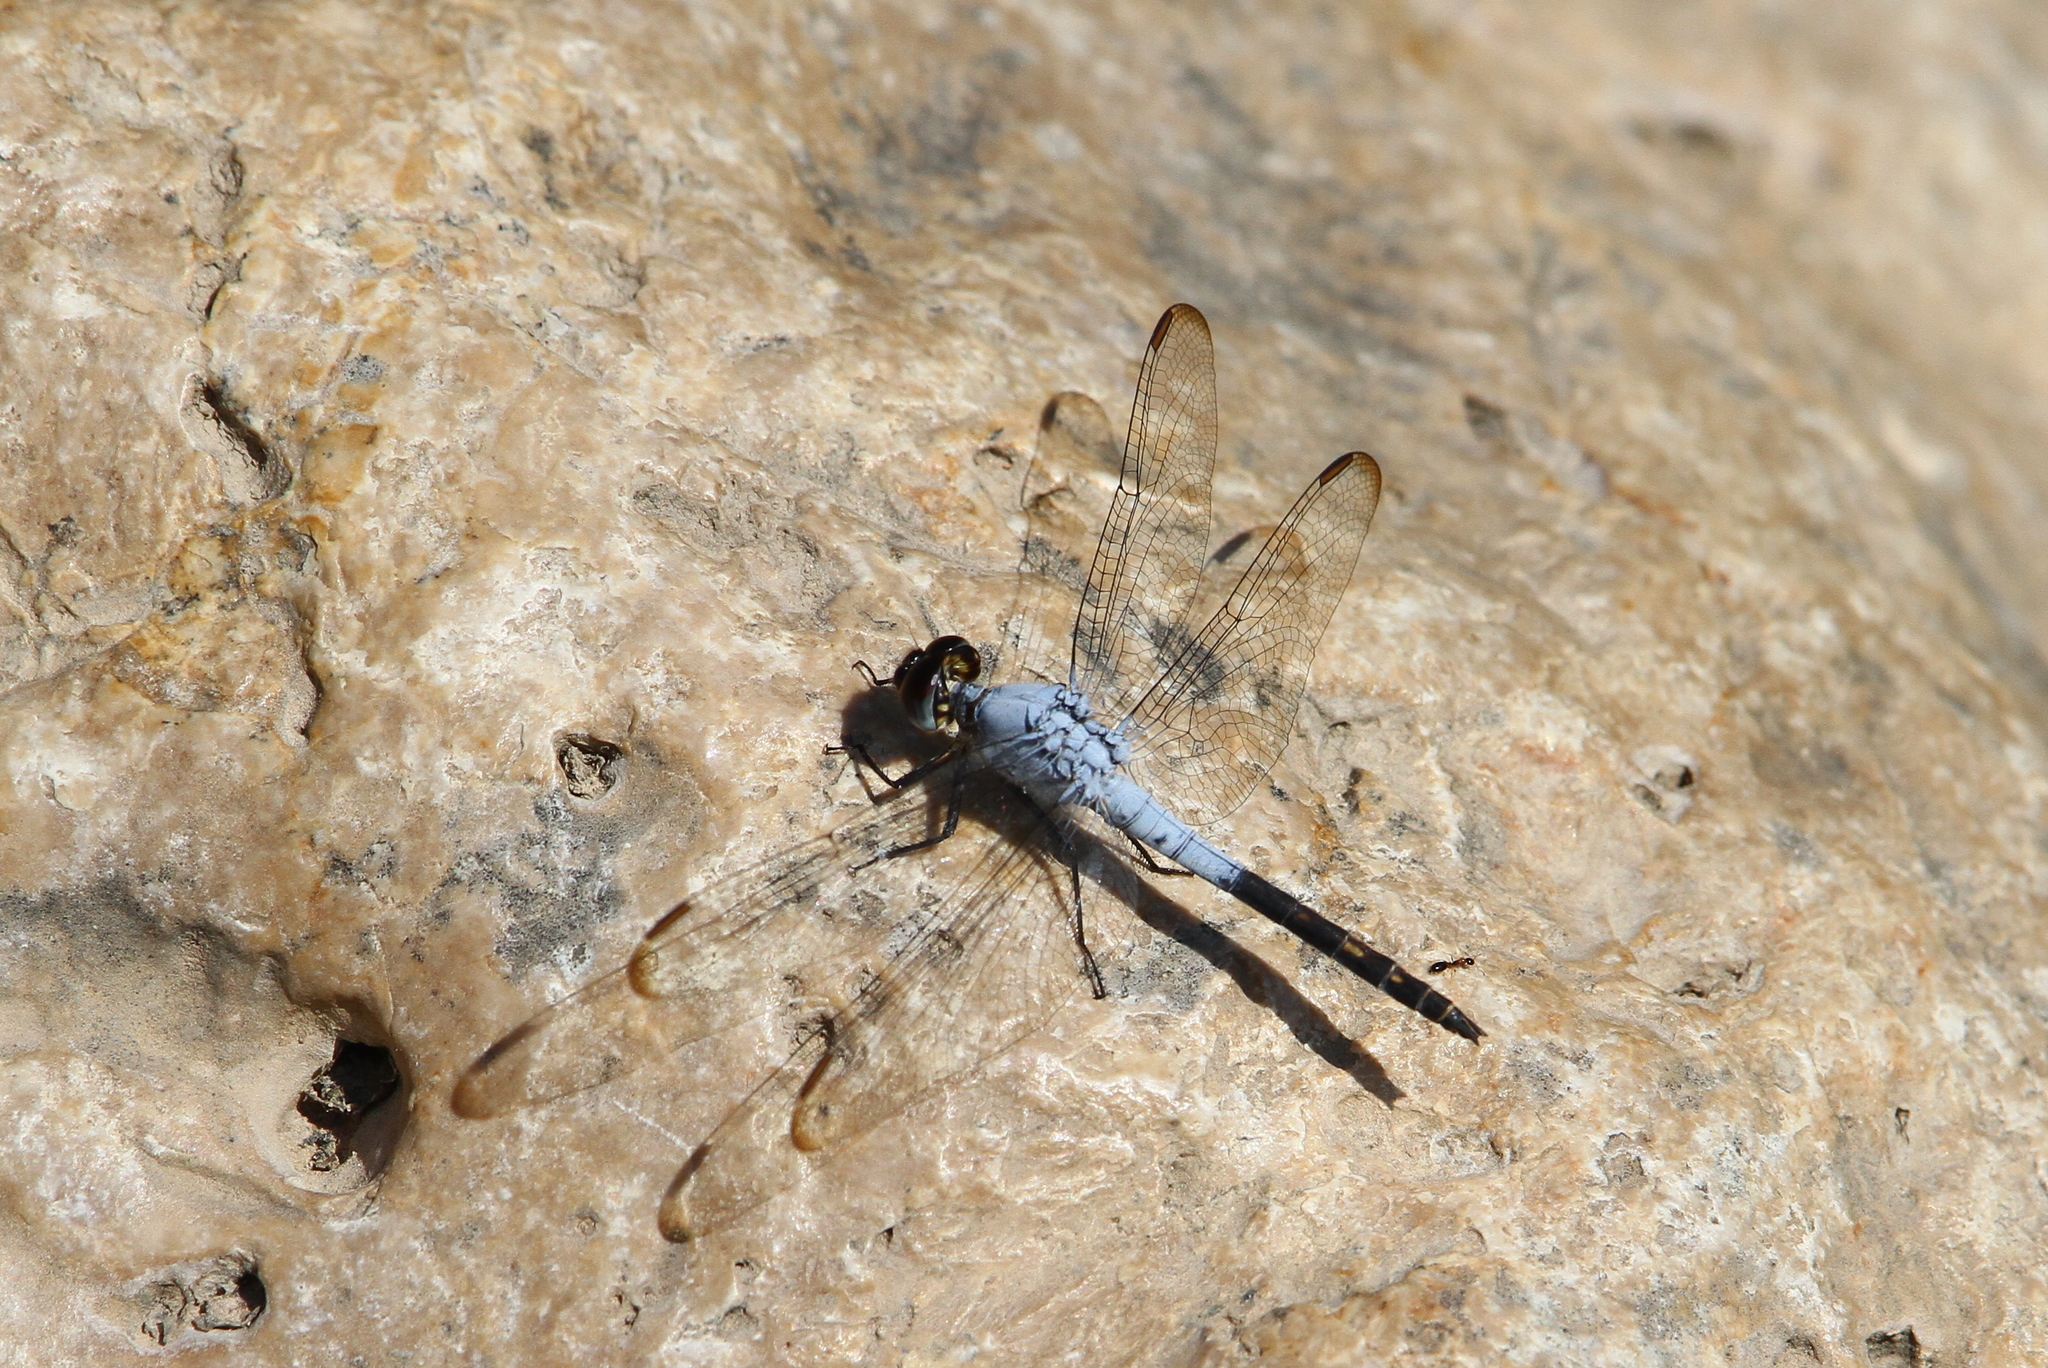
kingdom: Animalia
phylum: Arthropoda
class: Insecta
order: Odonata
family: Libellulidae
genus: Nesciothemis
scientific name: Nesciothemis farinosa
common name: Eastern blacktail
